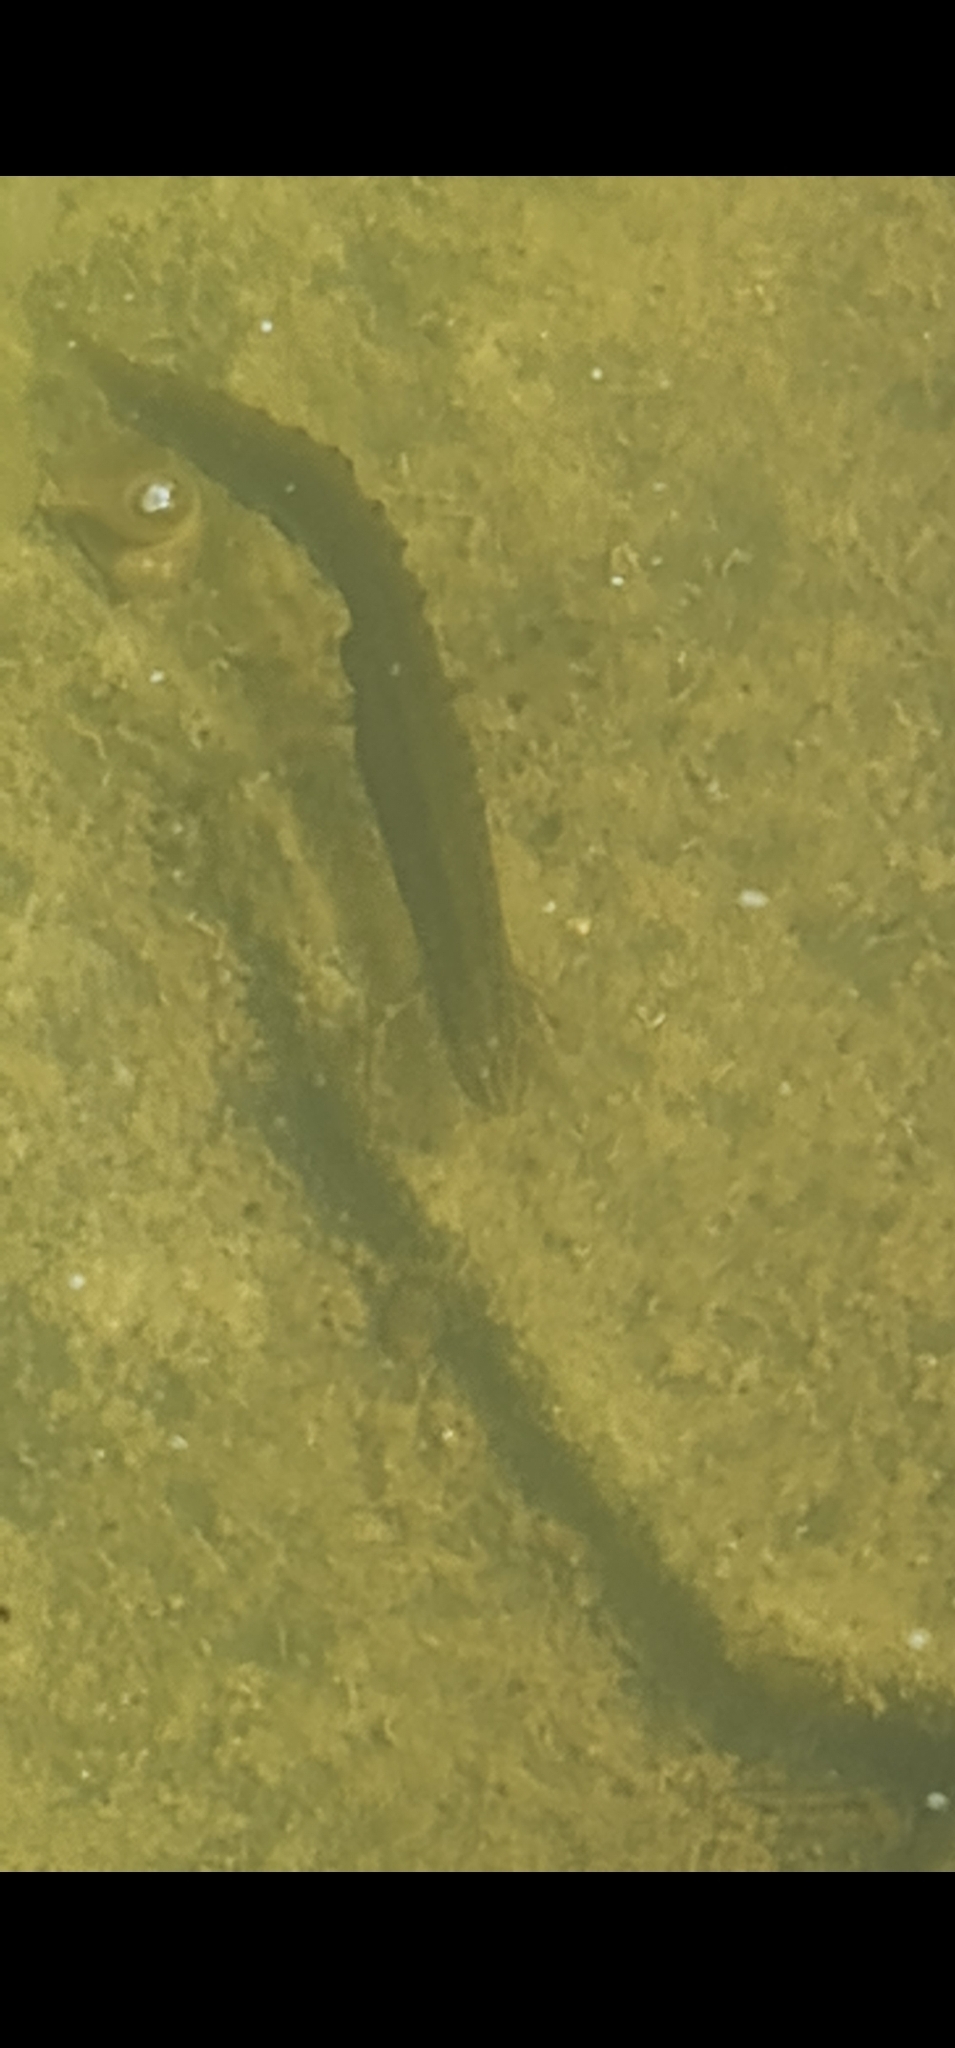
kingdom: Animalia
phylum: Chordata
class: Amphibia
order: Caudata
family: Salamandridae
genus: Lissotriton
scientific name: Lissotriton vulgaris
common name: Smooth newt
